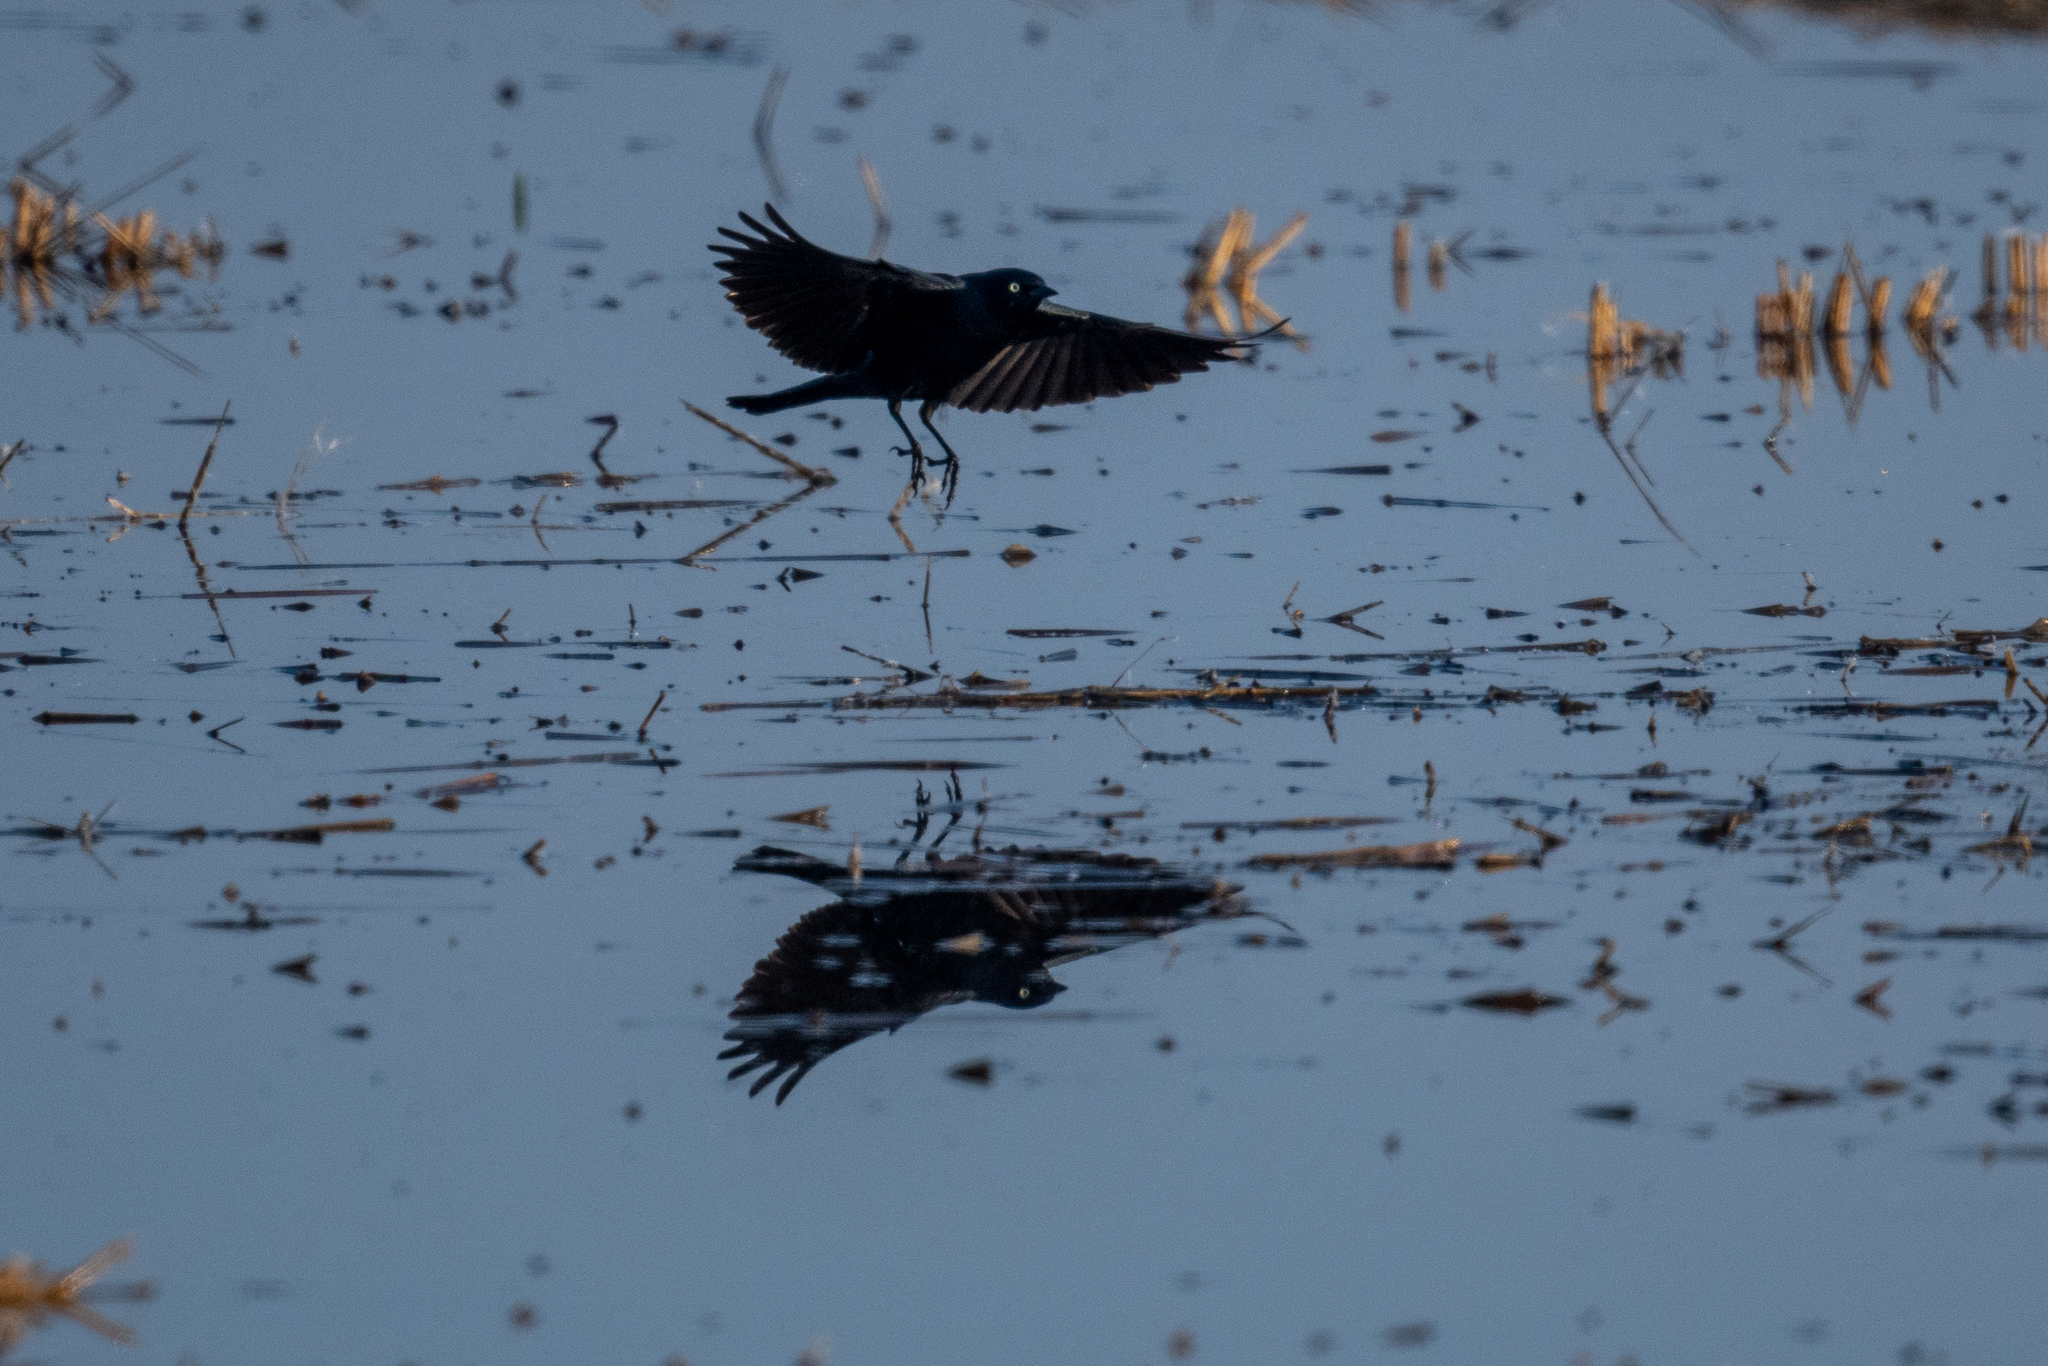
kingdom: Animalia
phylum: Chordata
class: Aves
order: Passeriformes
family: Icteridae
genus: Euphagus
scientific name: Euphagus cyanocephalus
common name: Brewer's blackbird
